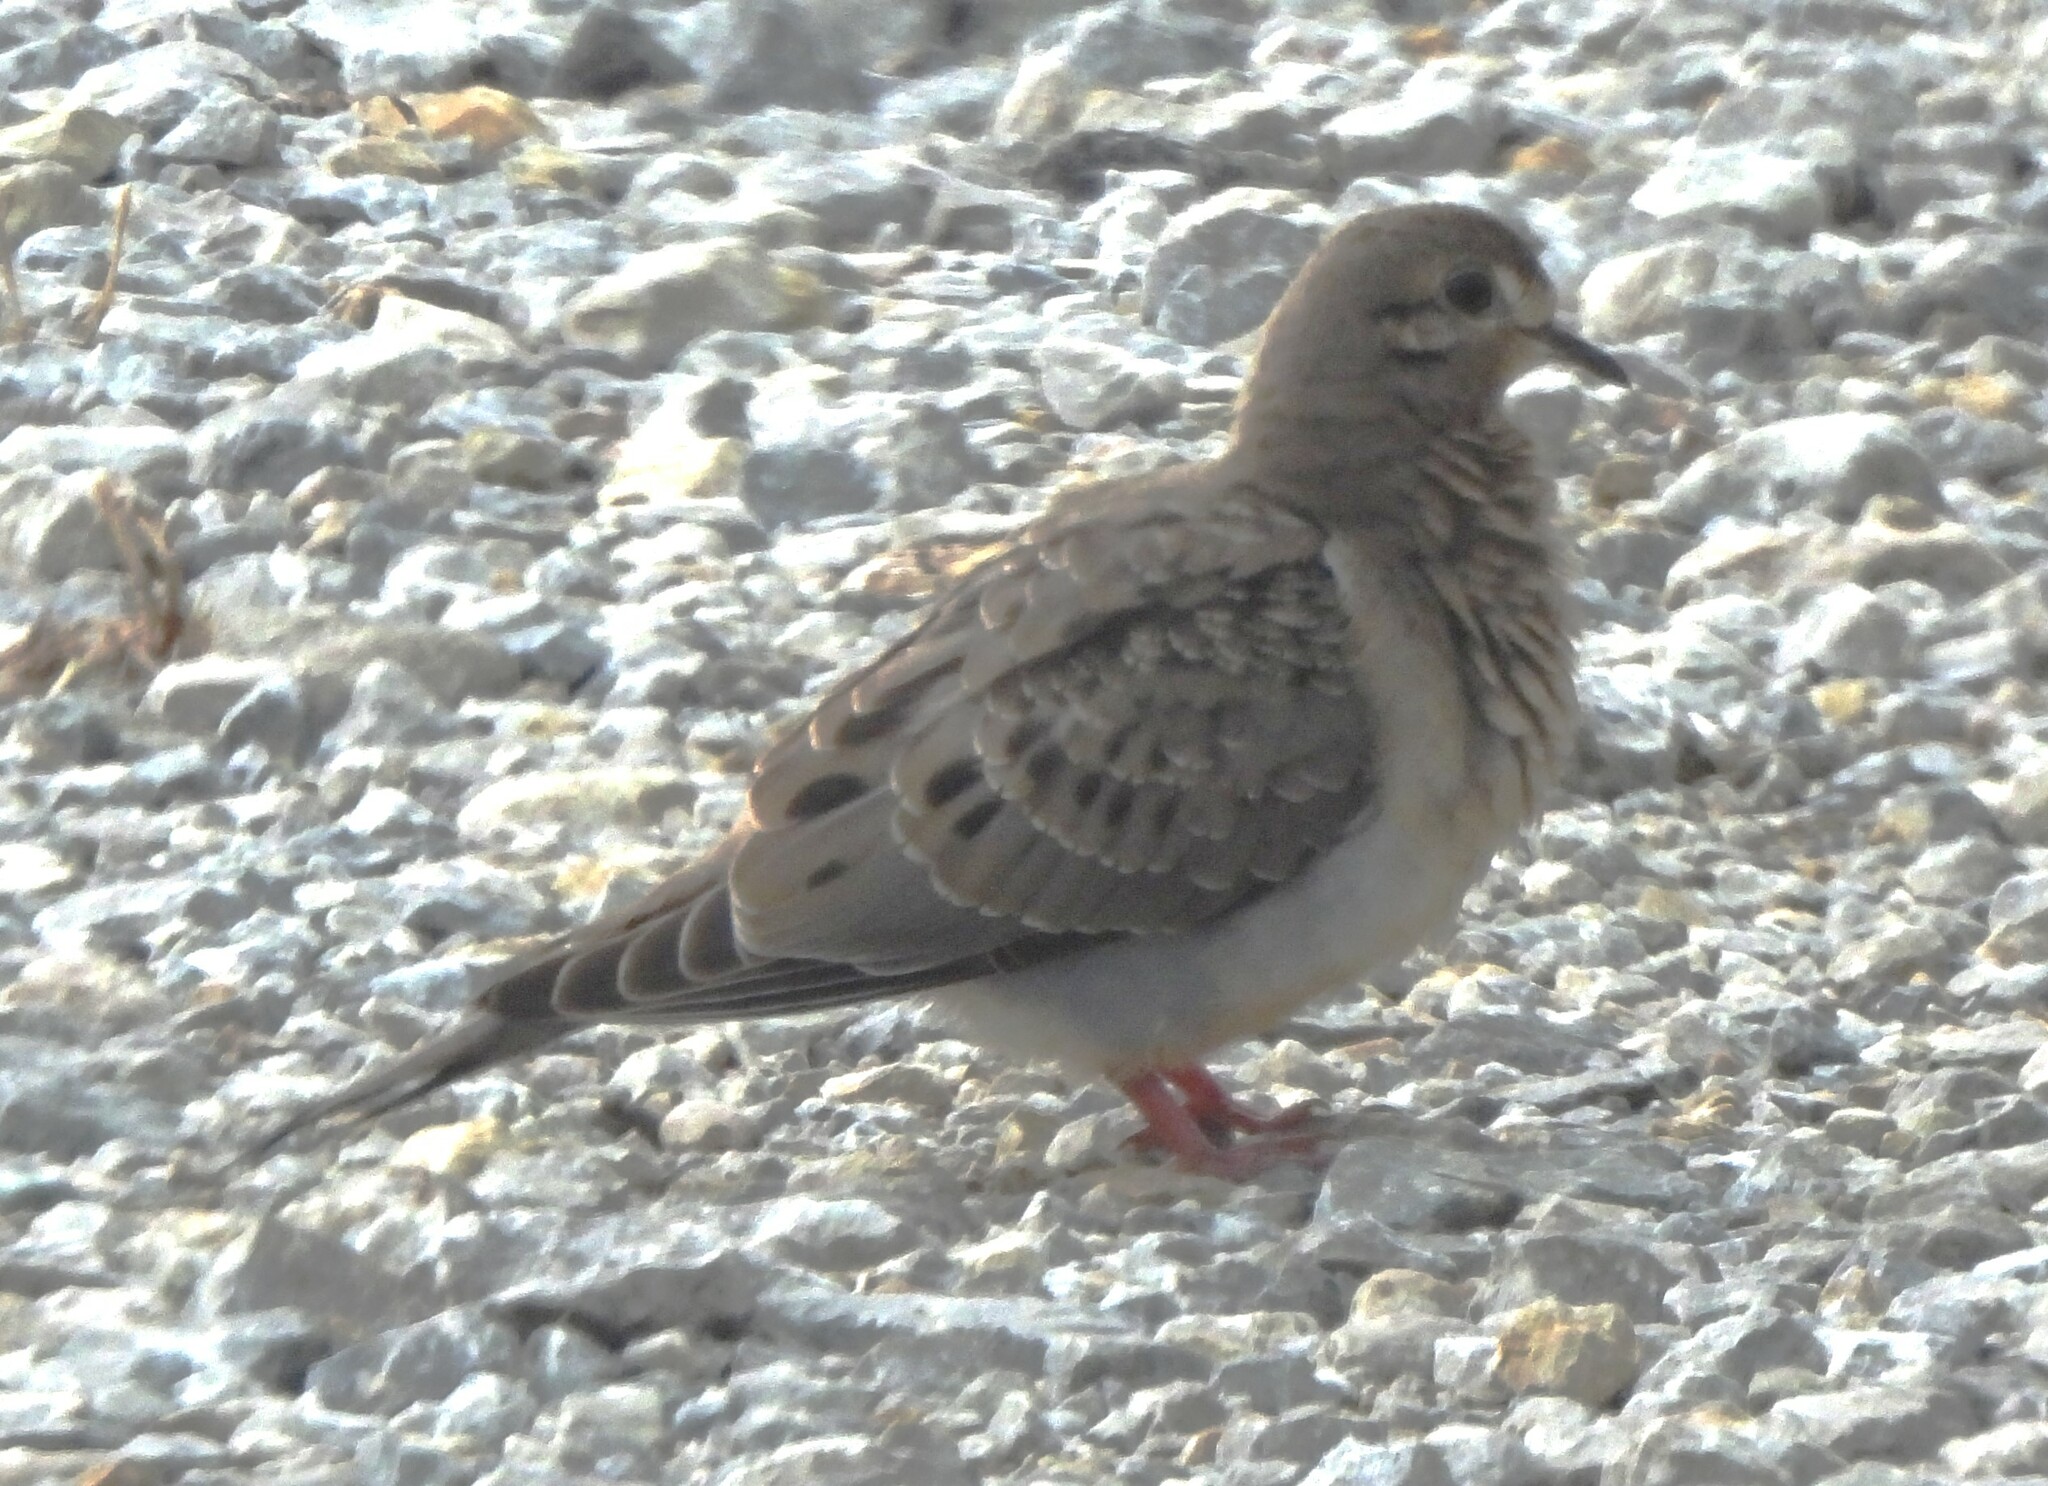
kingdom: Animalia
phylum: Chordata
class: Aves
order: Columbiformes
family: Columbidae
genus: Zenaida
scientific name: Zenaida macroura
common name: Mourning dove
